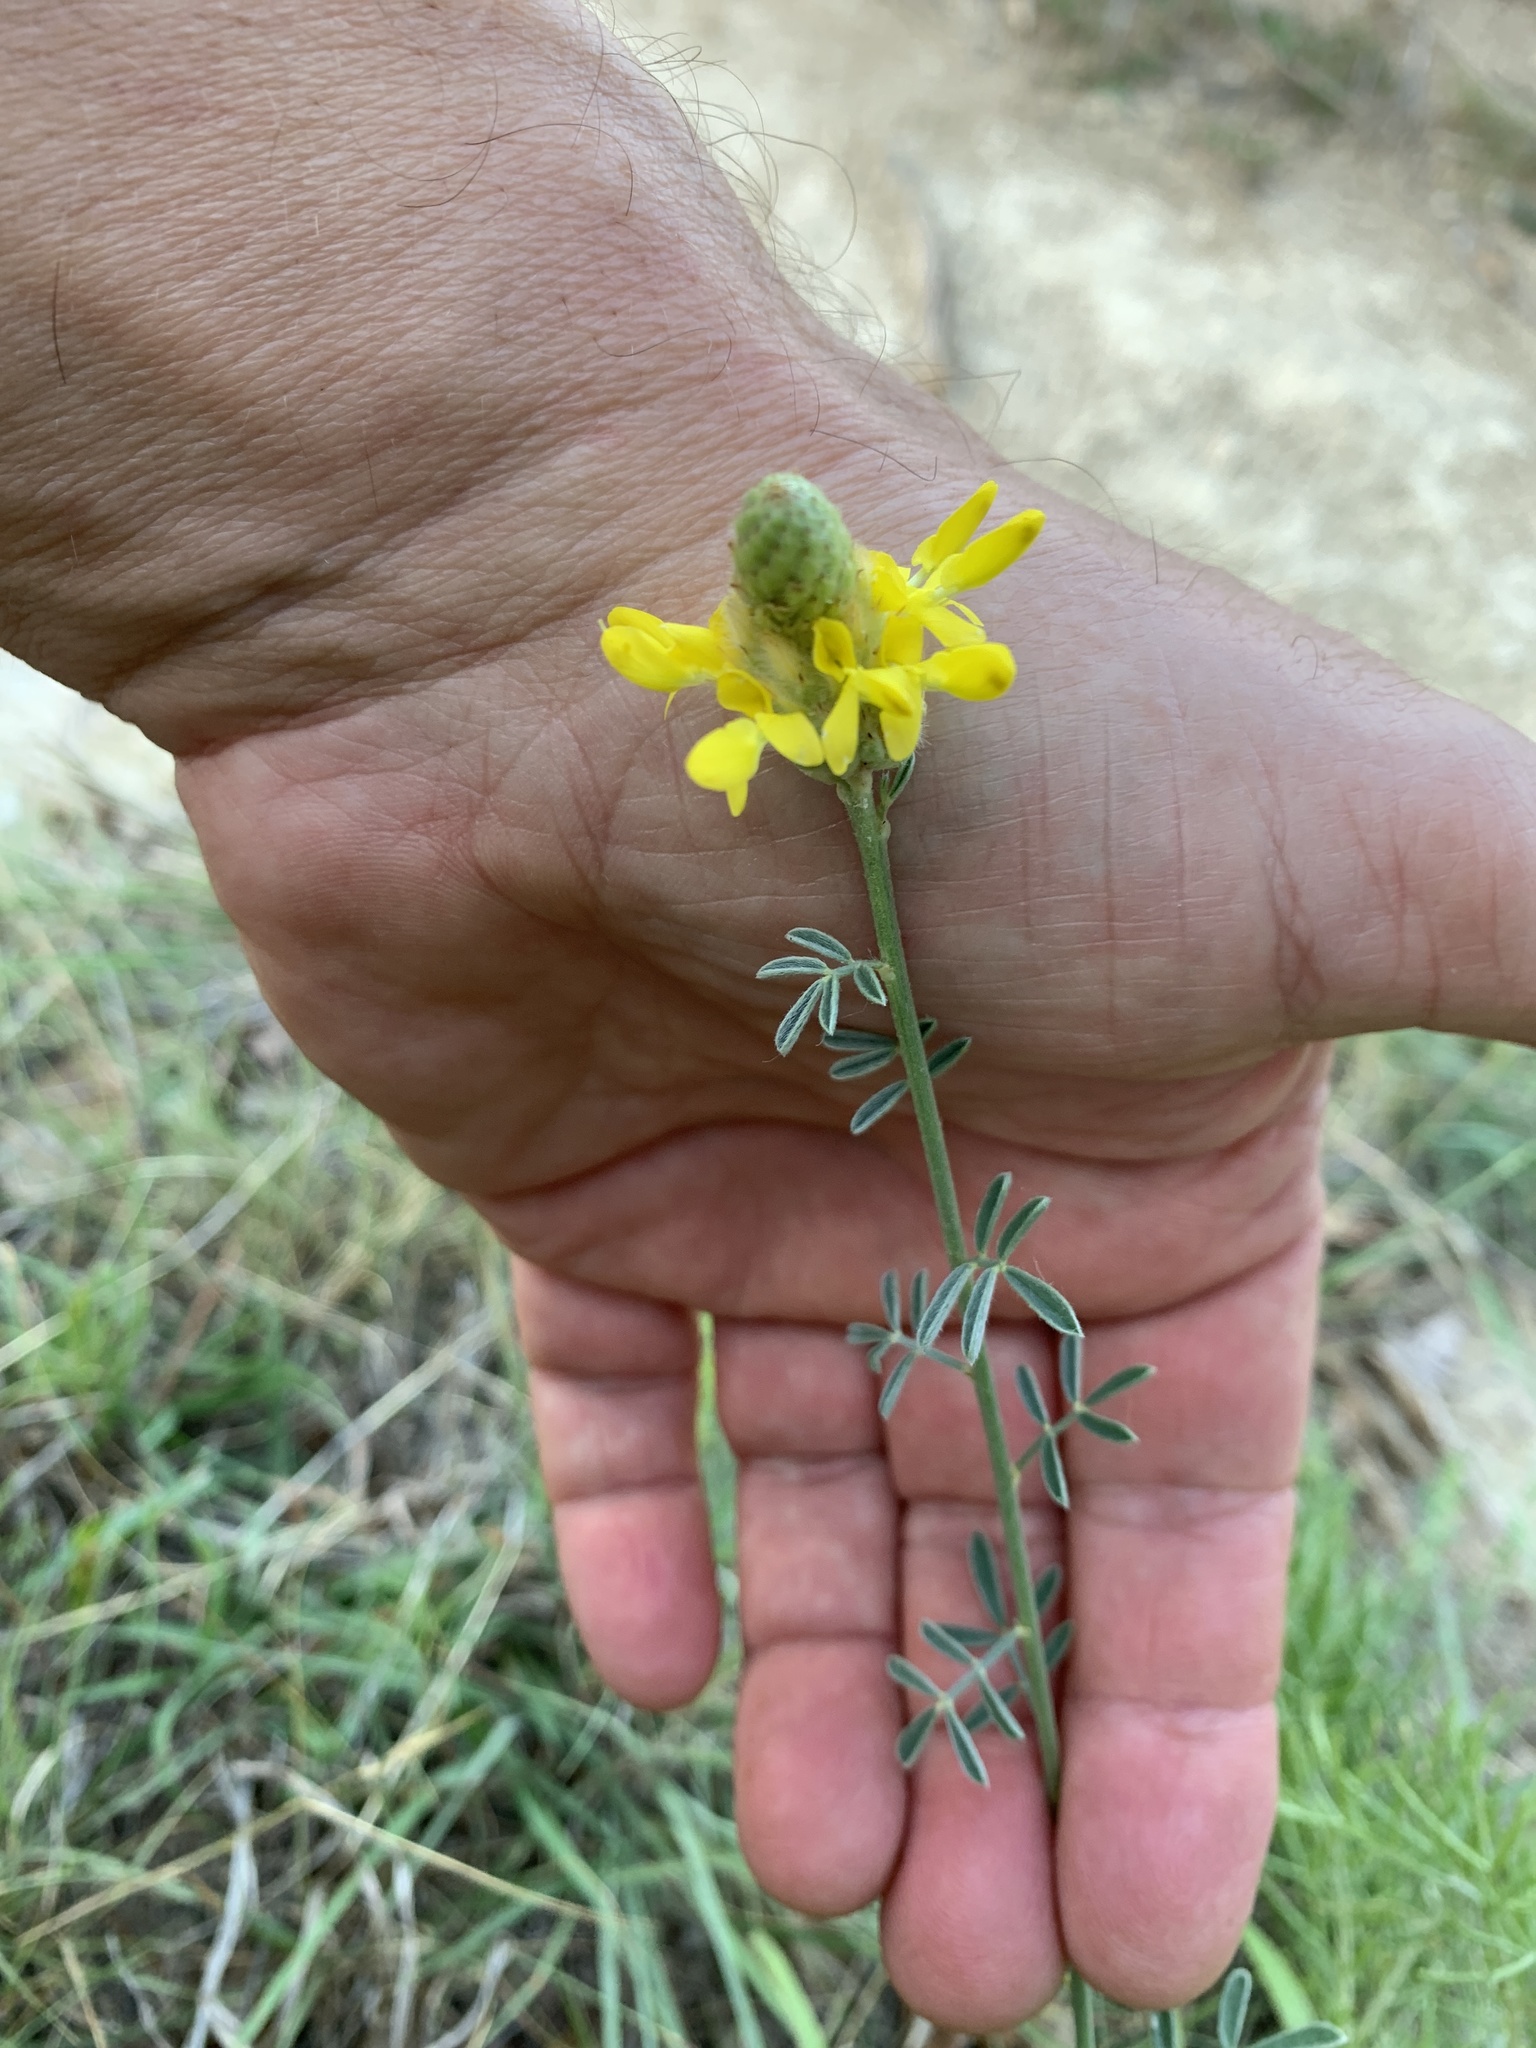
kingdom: Plantae
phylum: Tracheophyta
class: Magnoliopsida
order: Fabales
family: Fabaceae
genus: Dalea
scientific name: Dalea aurea
